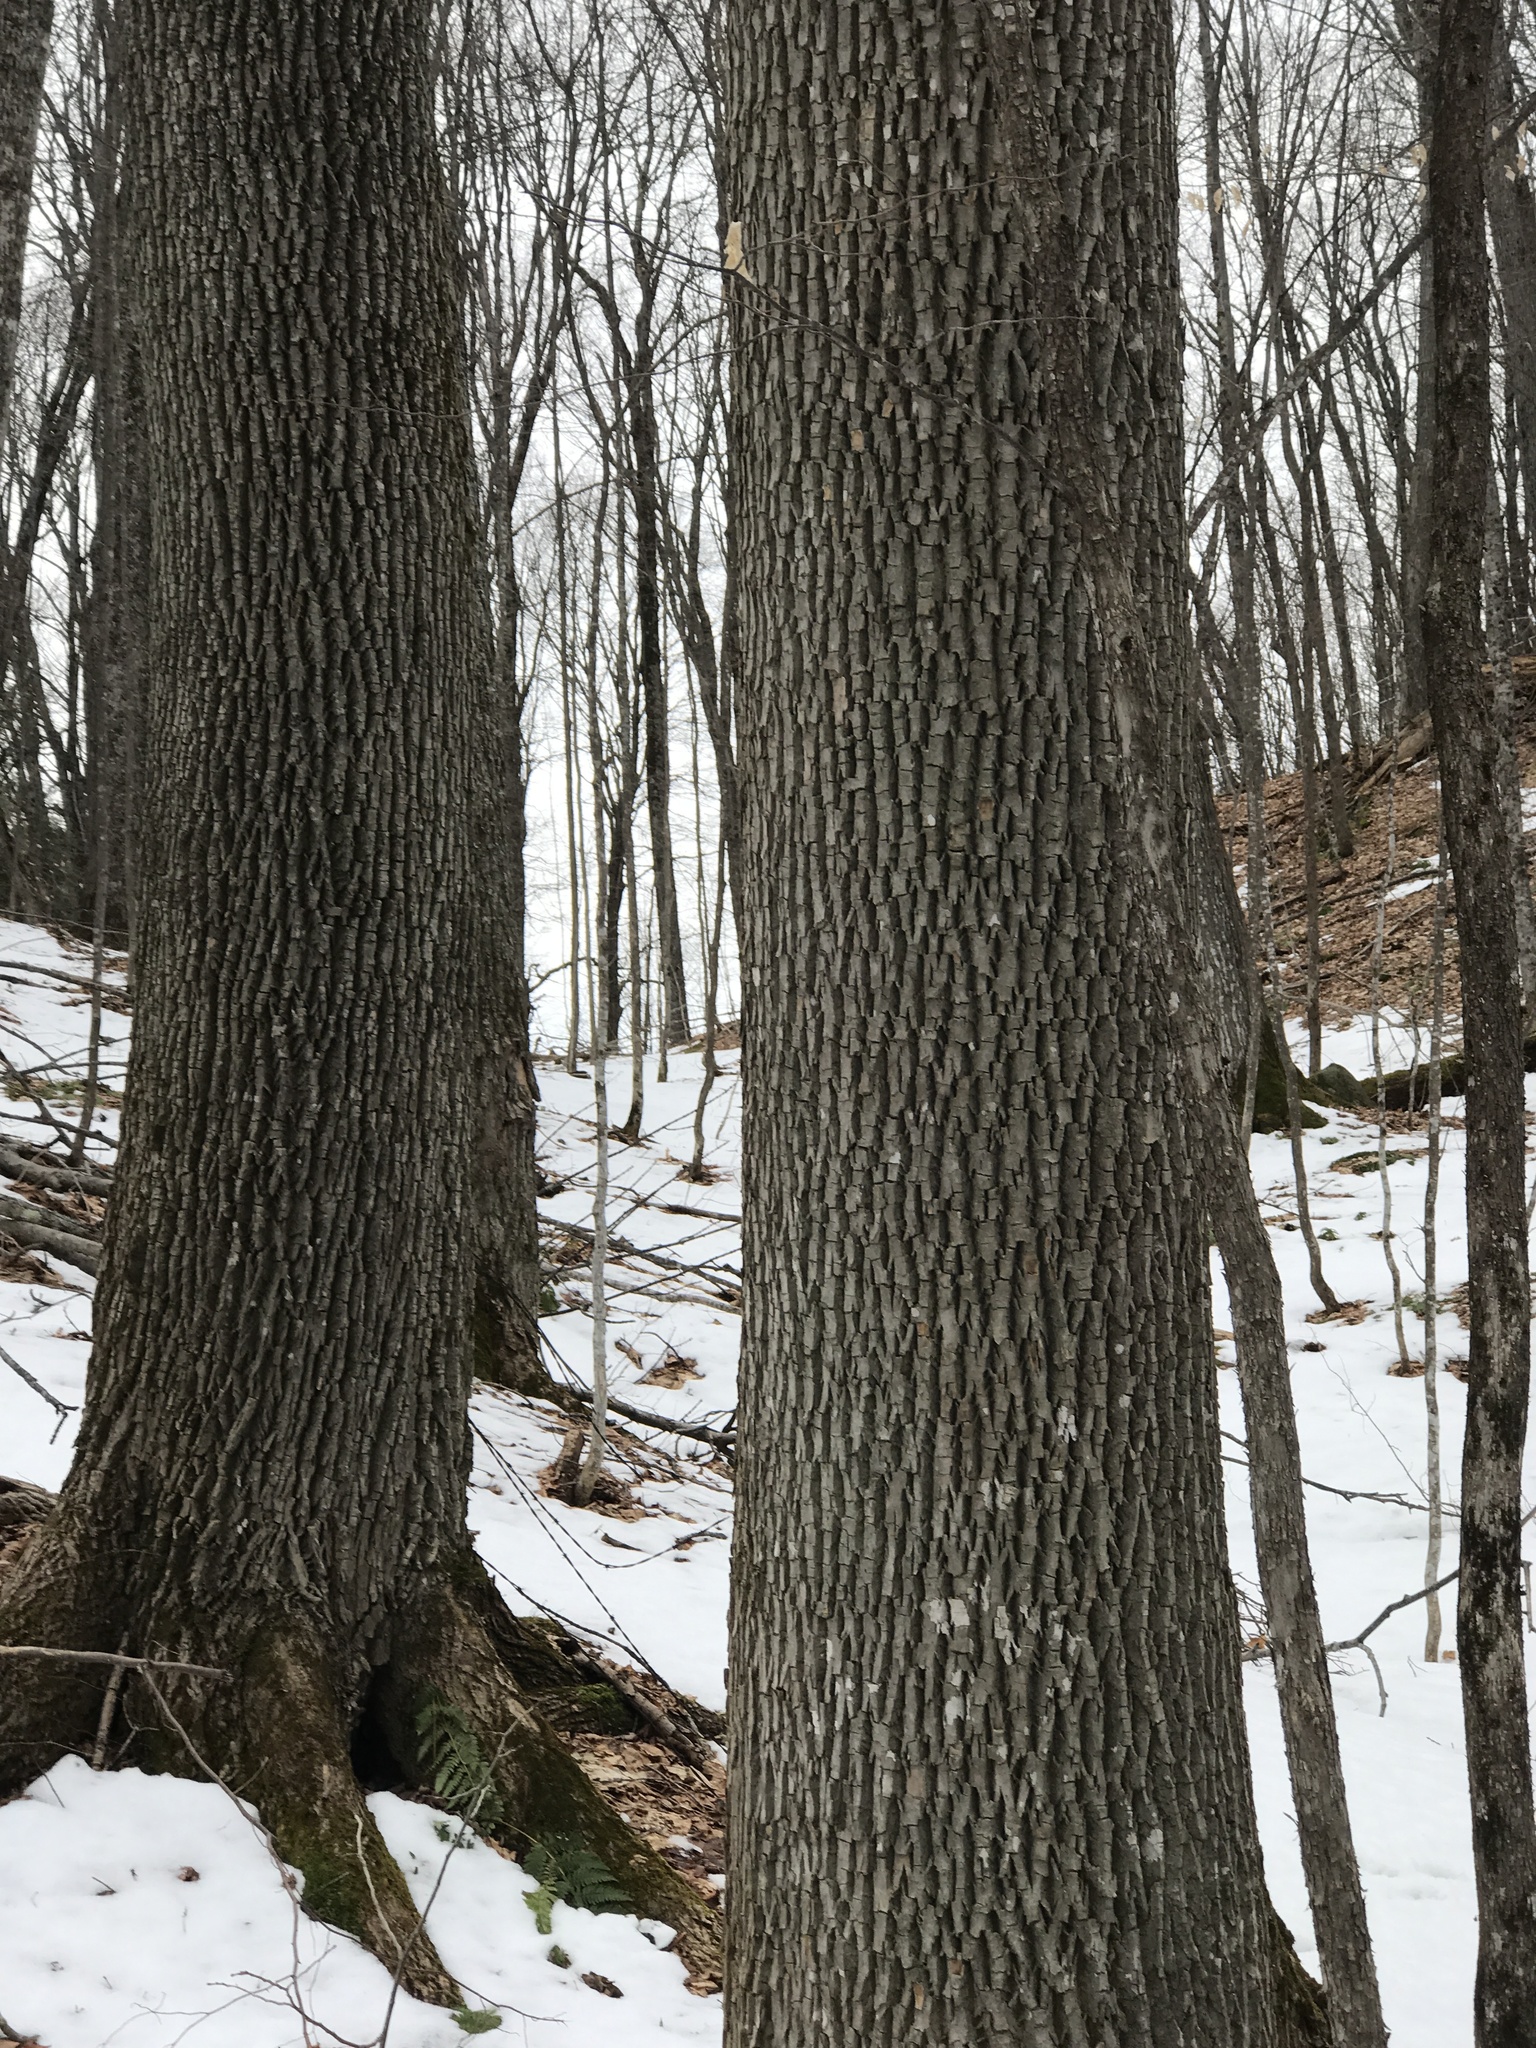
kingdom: Plantae
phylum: Tracheophyta
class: Magnoliopsida
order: Lamiales
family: Oleaceae
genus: Fraxinus
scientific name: Fraxinus americana
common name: White ash
